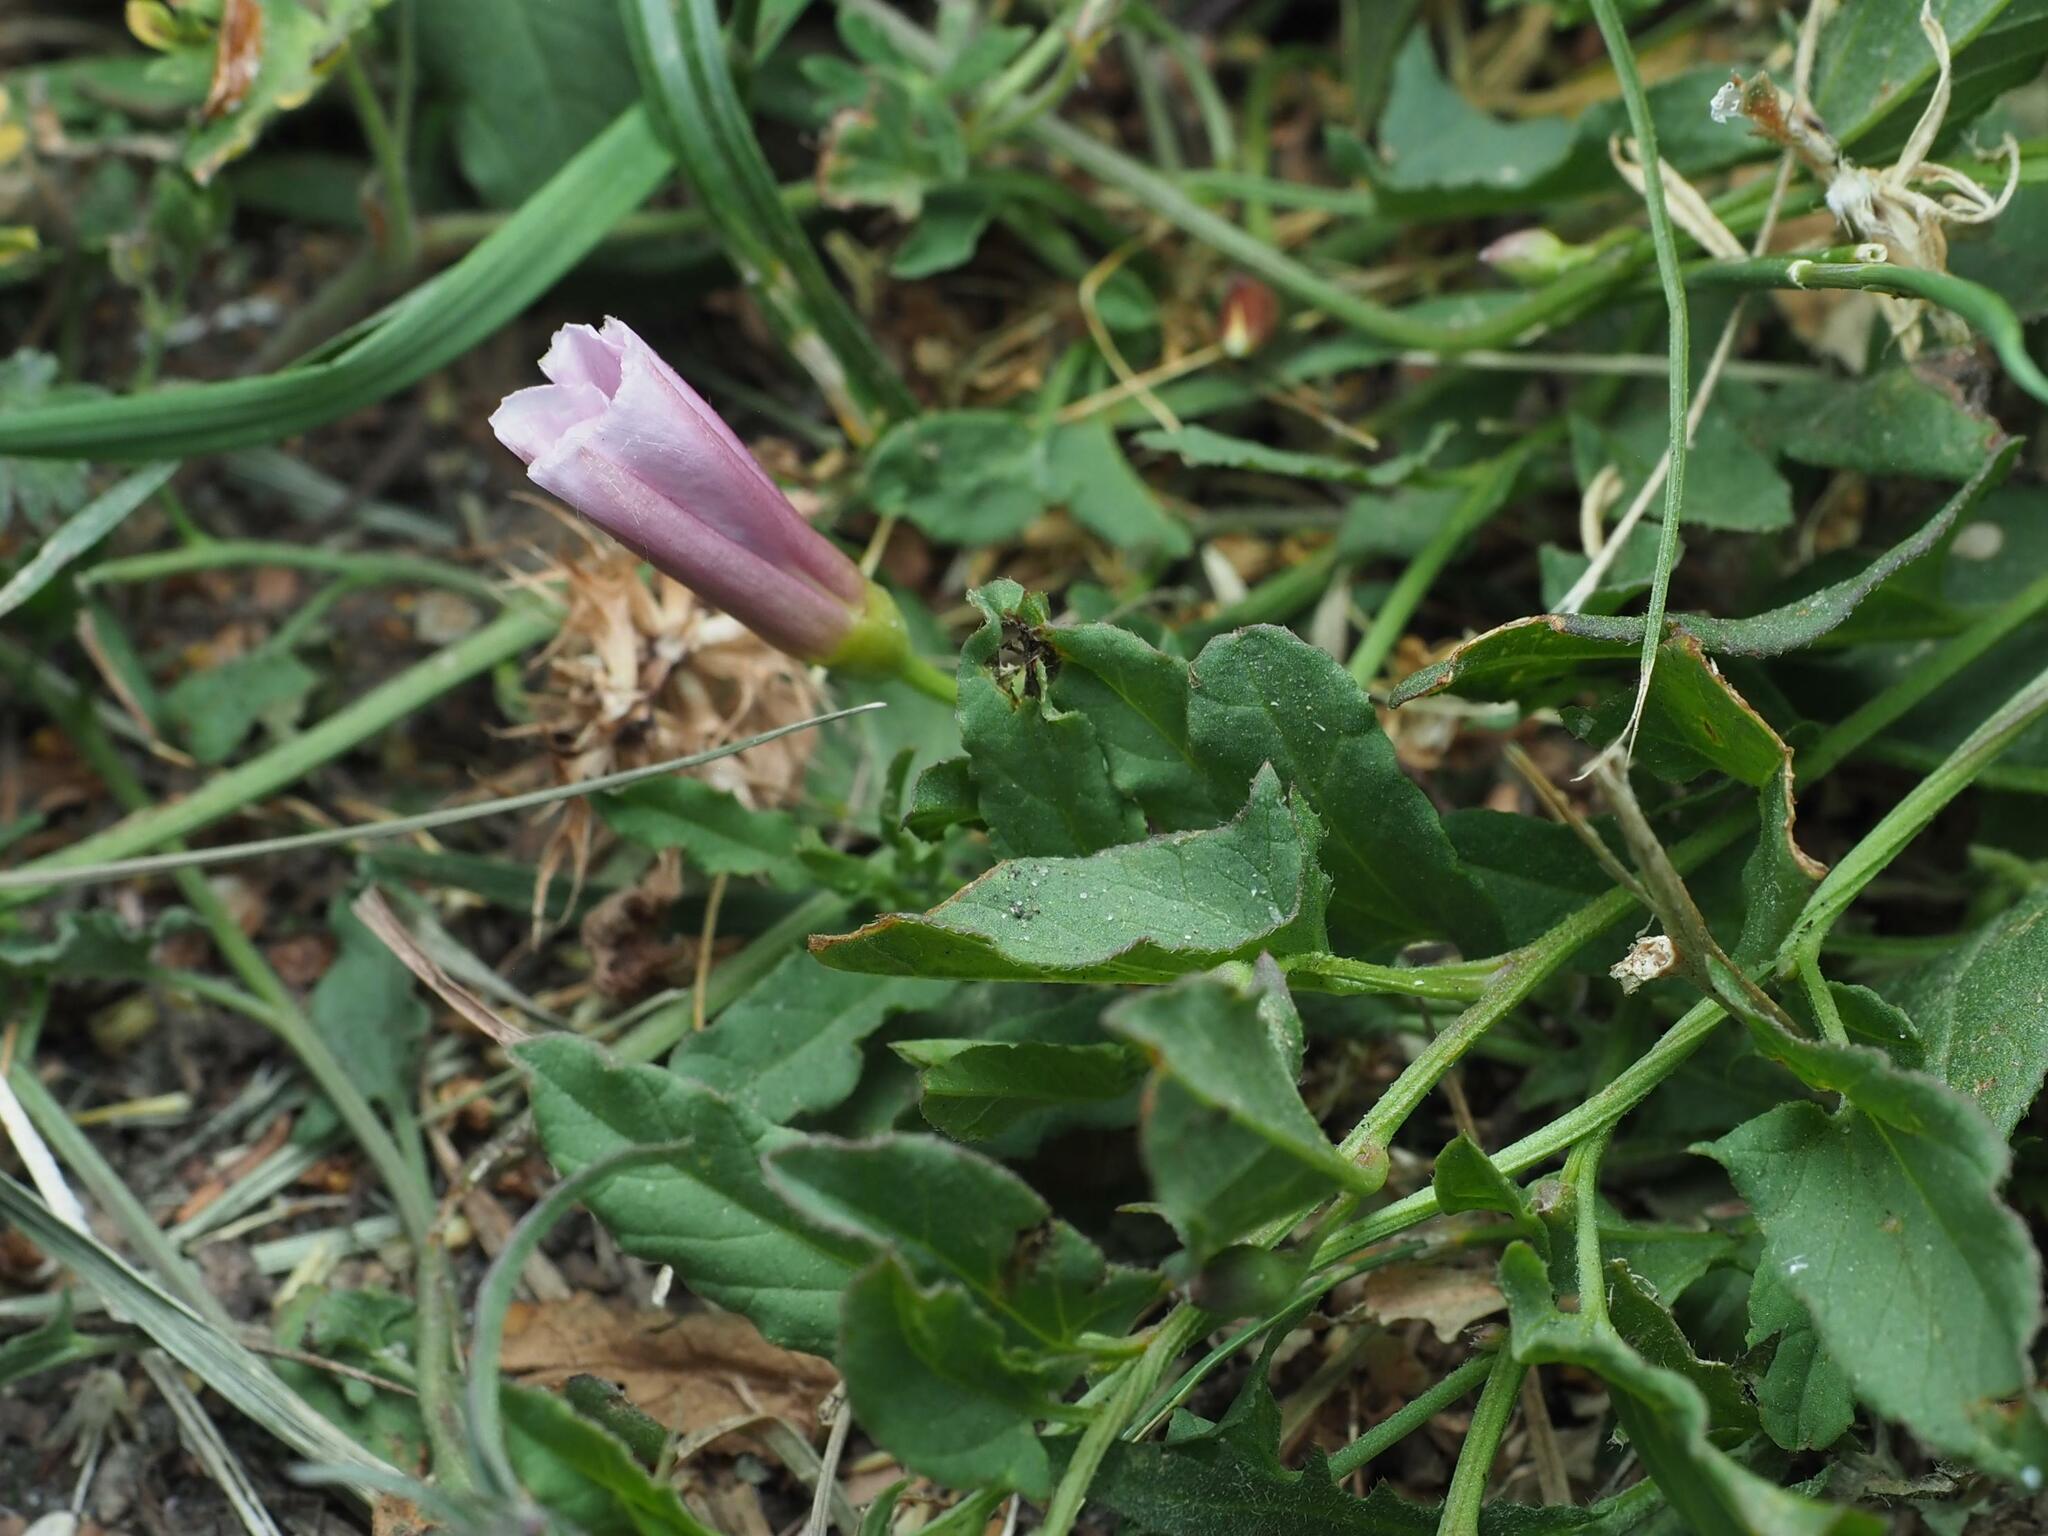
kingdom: Plantae
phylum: Tracheophyta
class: Magnoliopsida
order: Solanales
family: Convolvulaceae
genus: Convolvulus
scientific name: Convolvulus arvensis
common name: Field bindweed
